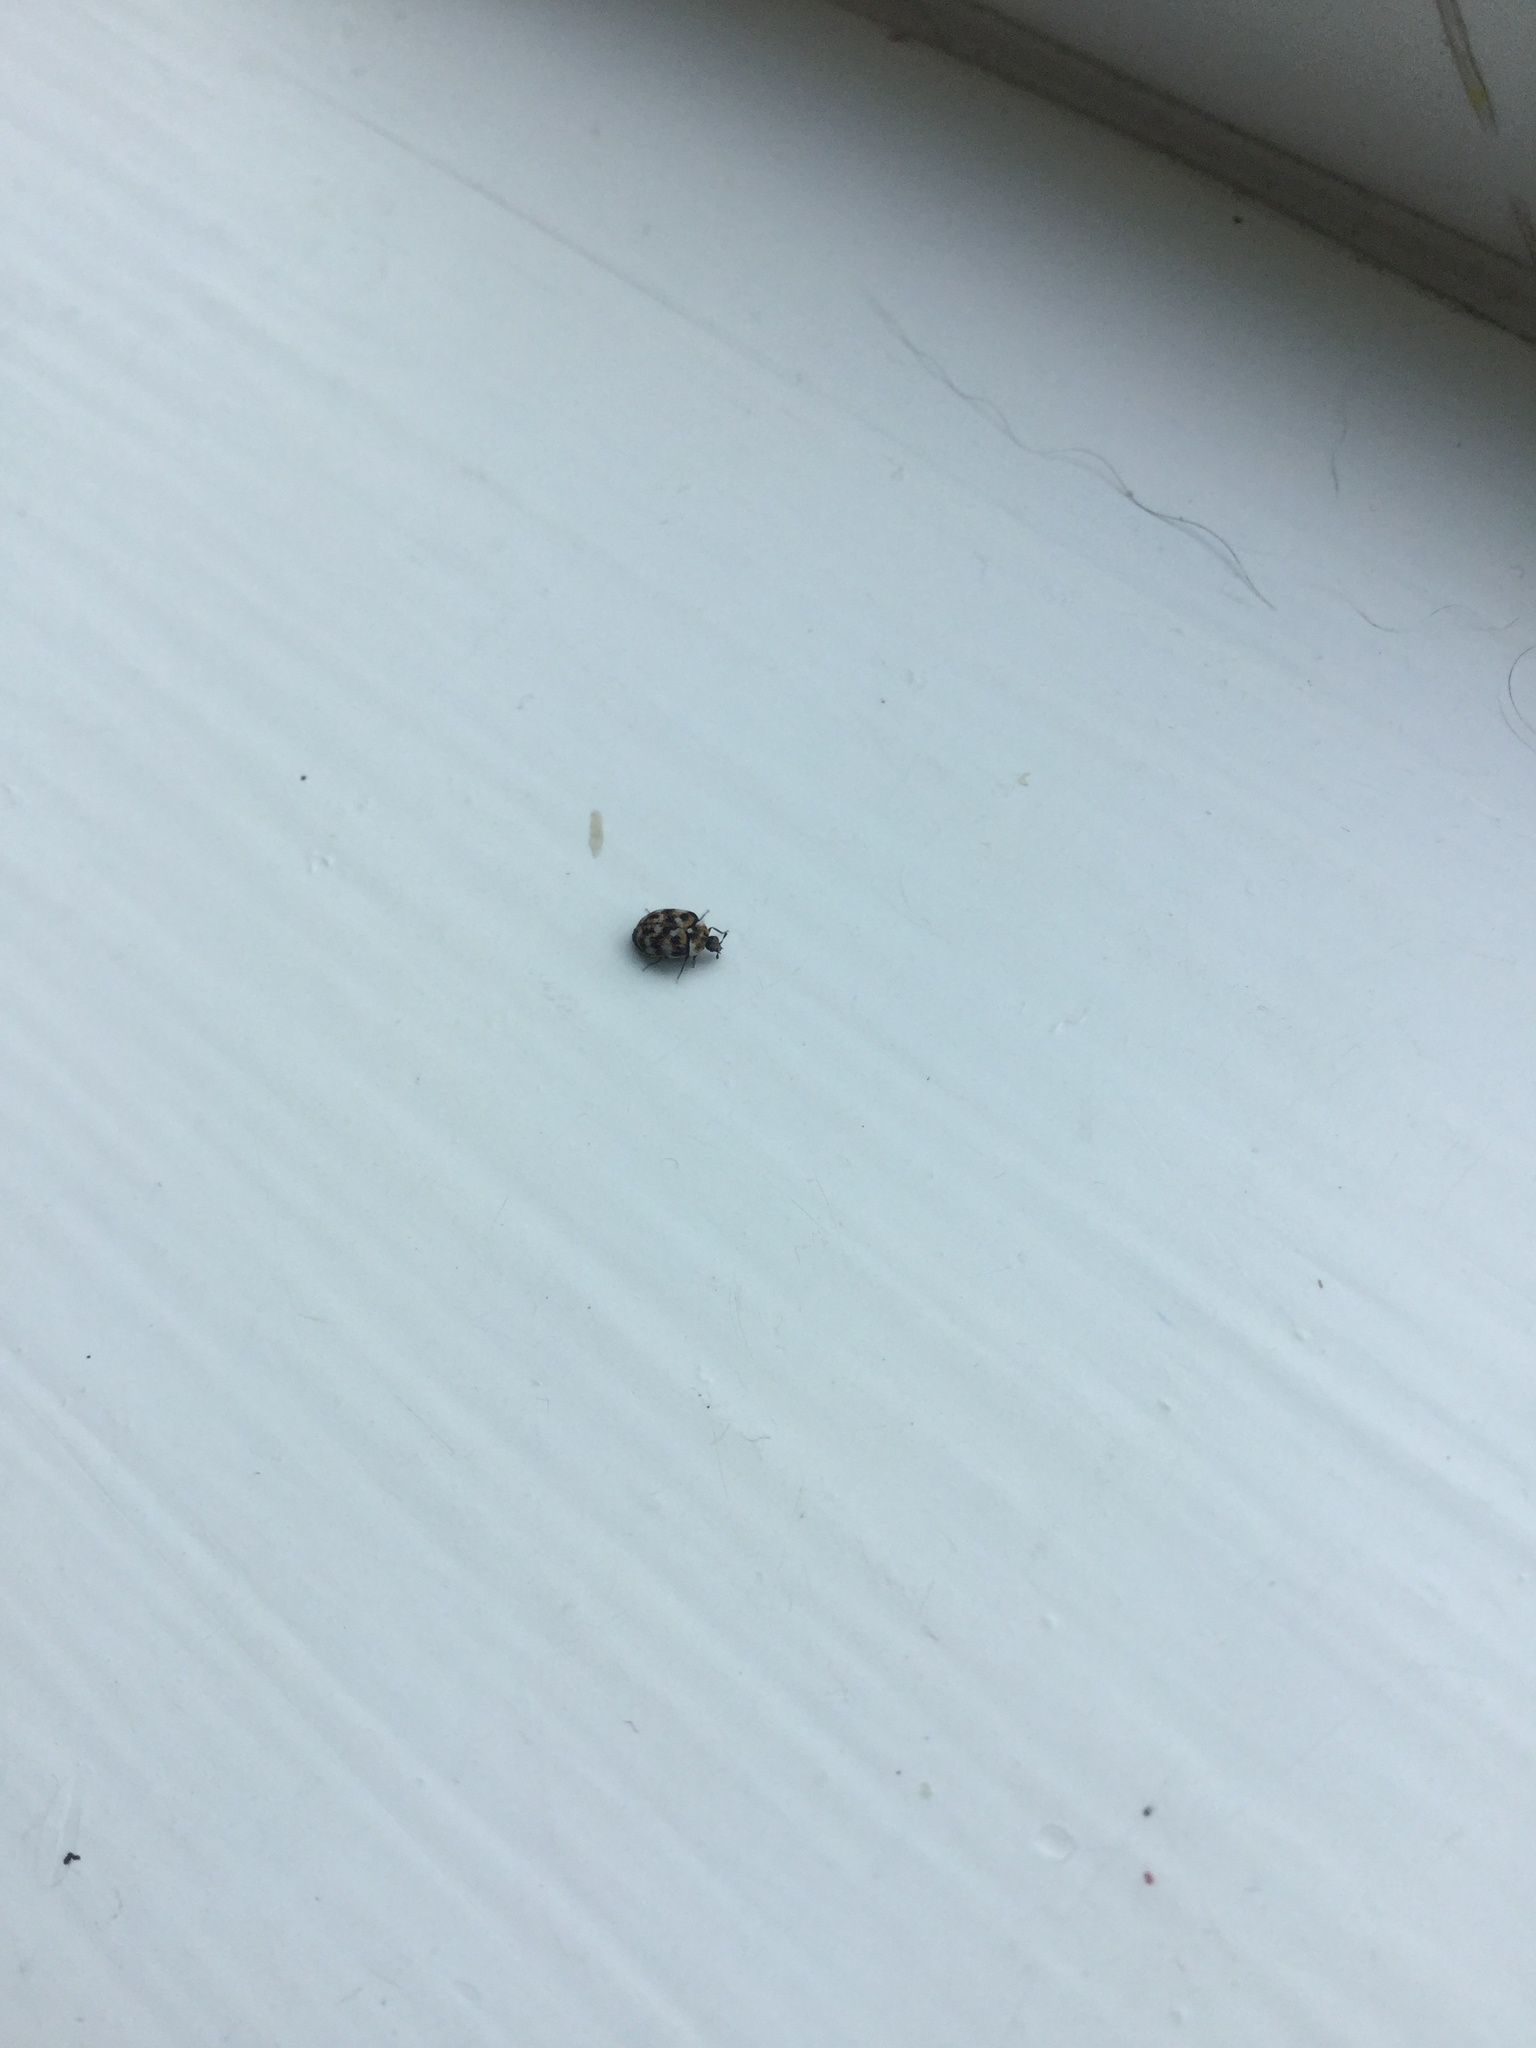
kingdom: Animalia
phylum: Arthropoda
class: Insecta
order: Coleoptera
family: Dermestidae
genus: Anthrenus
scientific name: Anthrenus verbasci
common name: Varied carpet beetle
